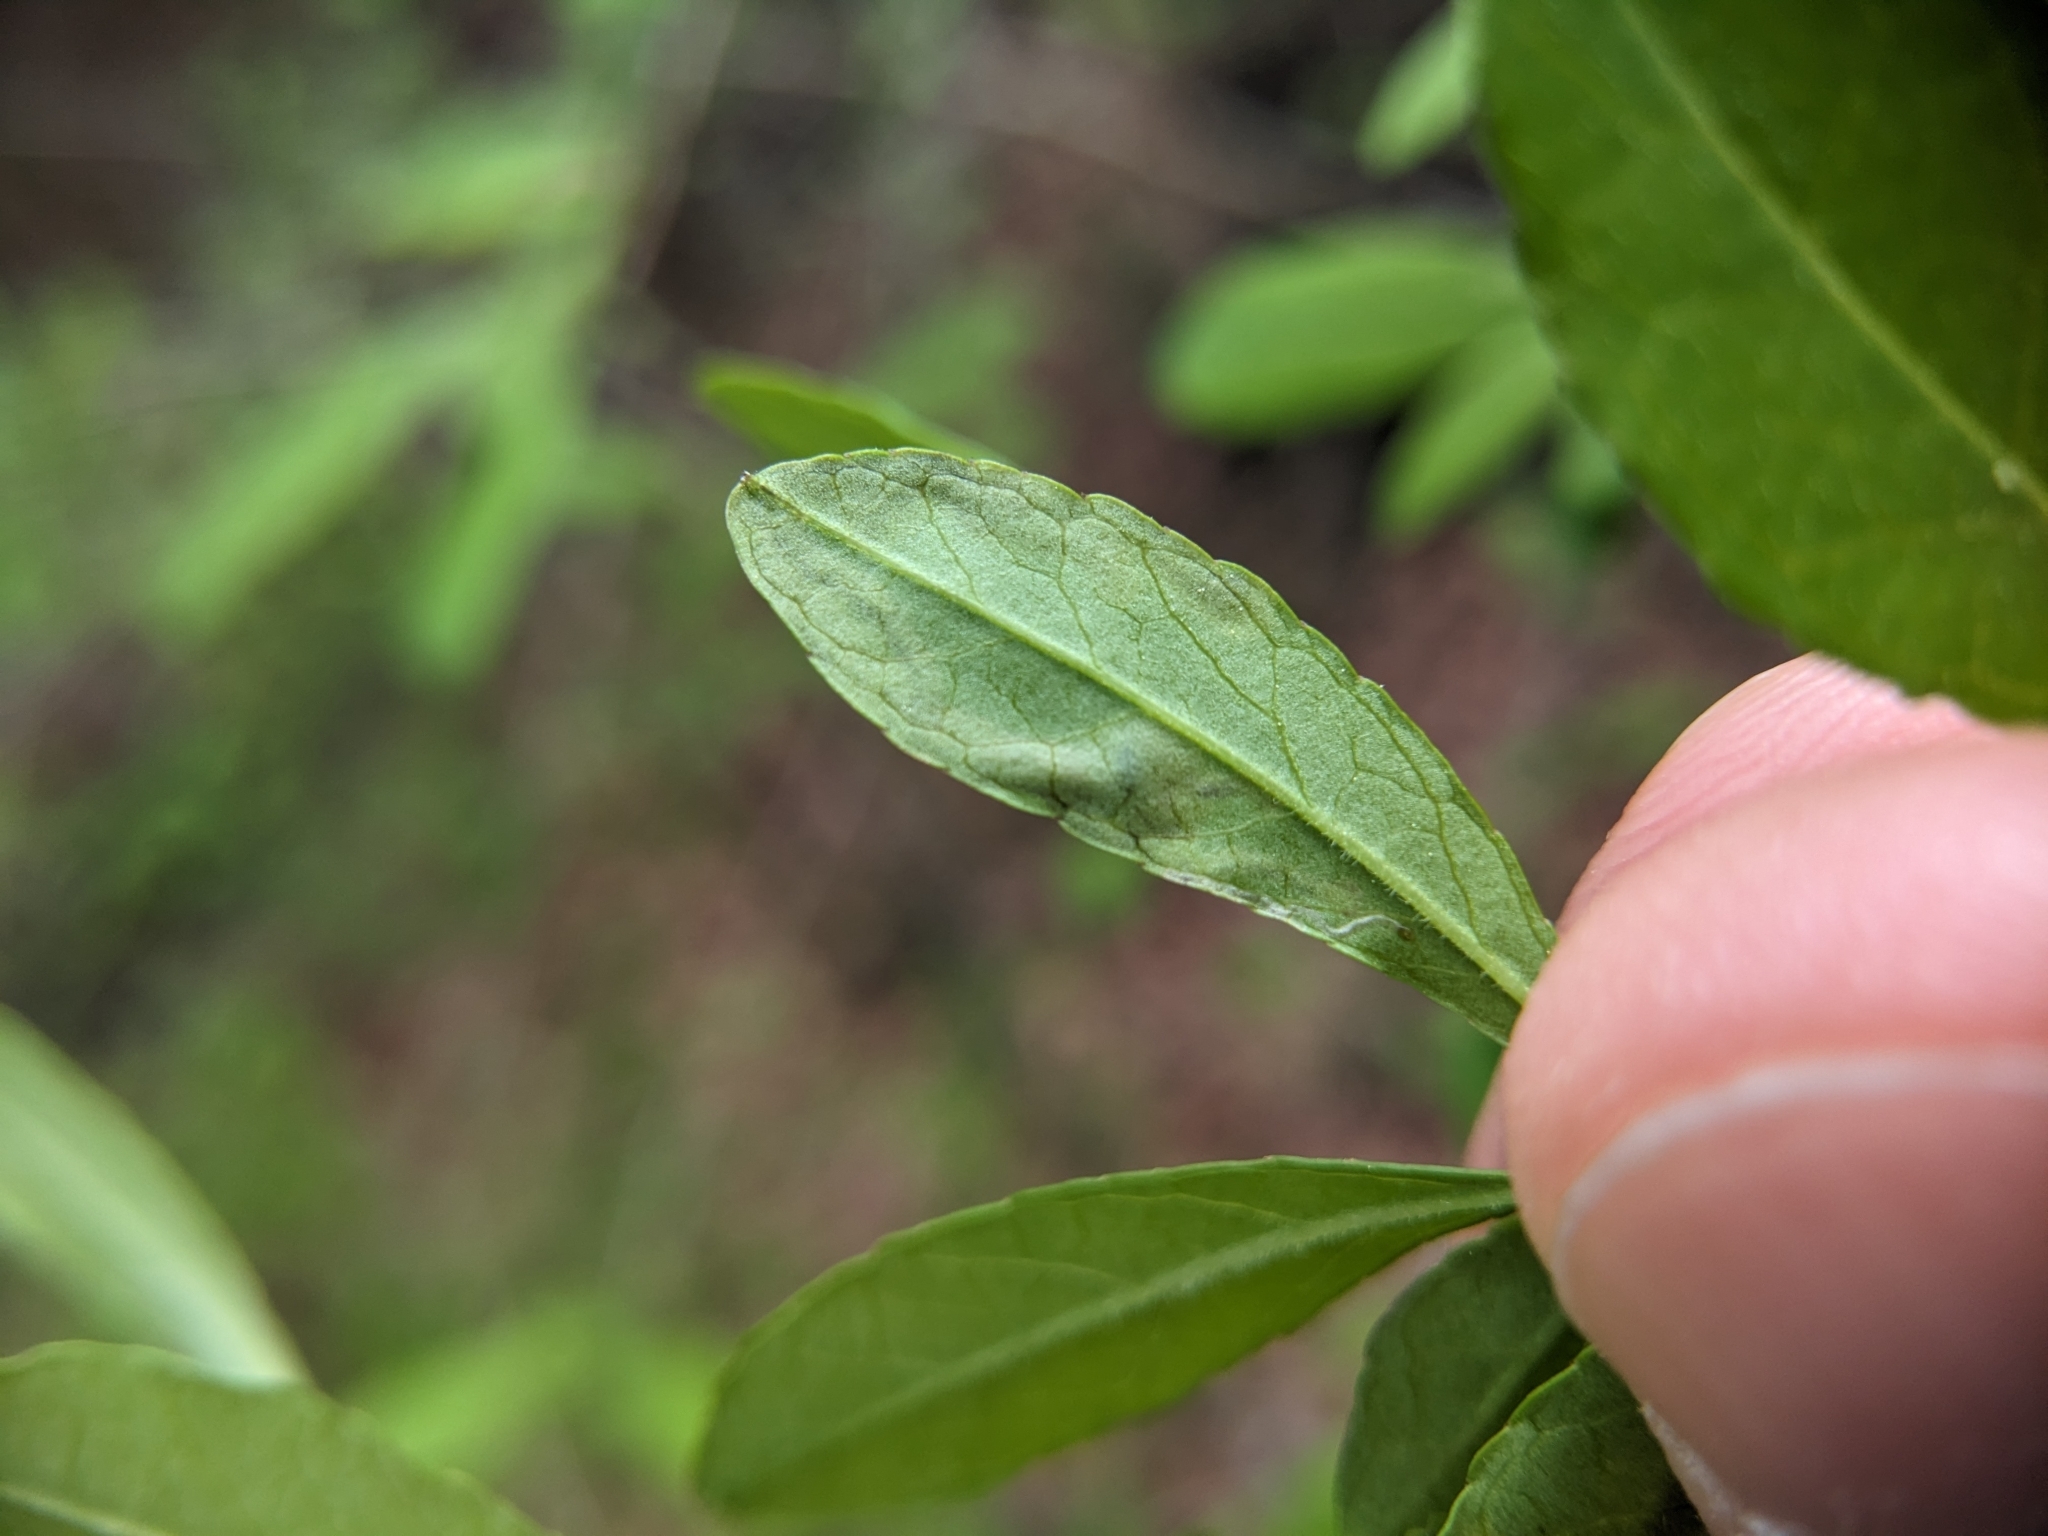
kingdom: Animalia
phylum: Arthropoda
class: Insecta
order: Diptera
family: Agromyzidae
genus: Phytomyza
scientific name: Phytomyza ditmani
